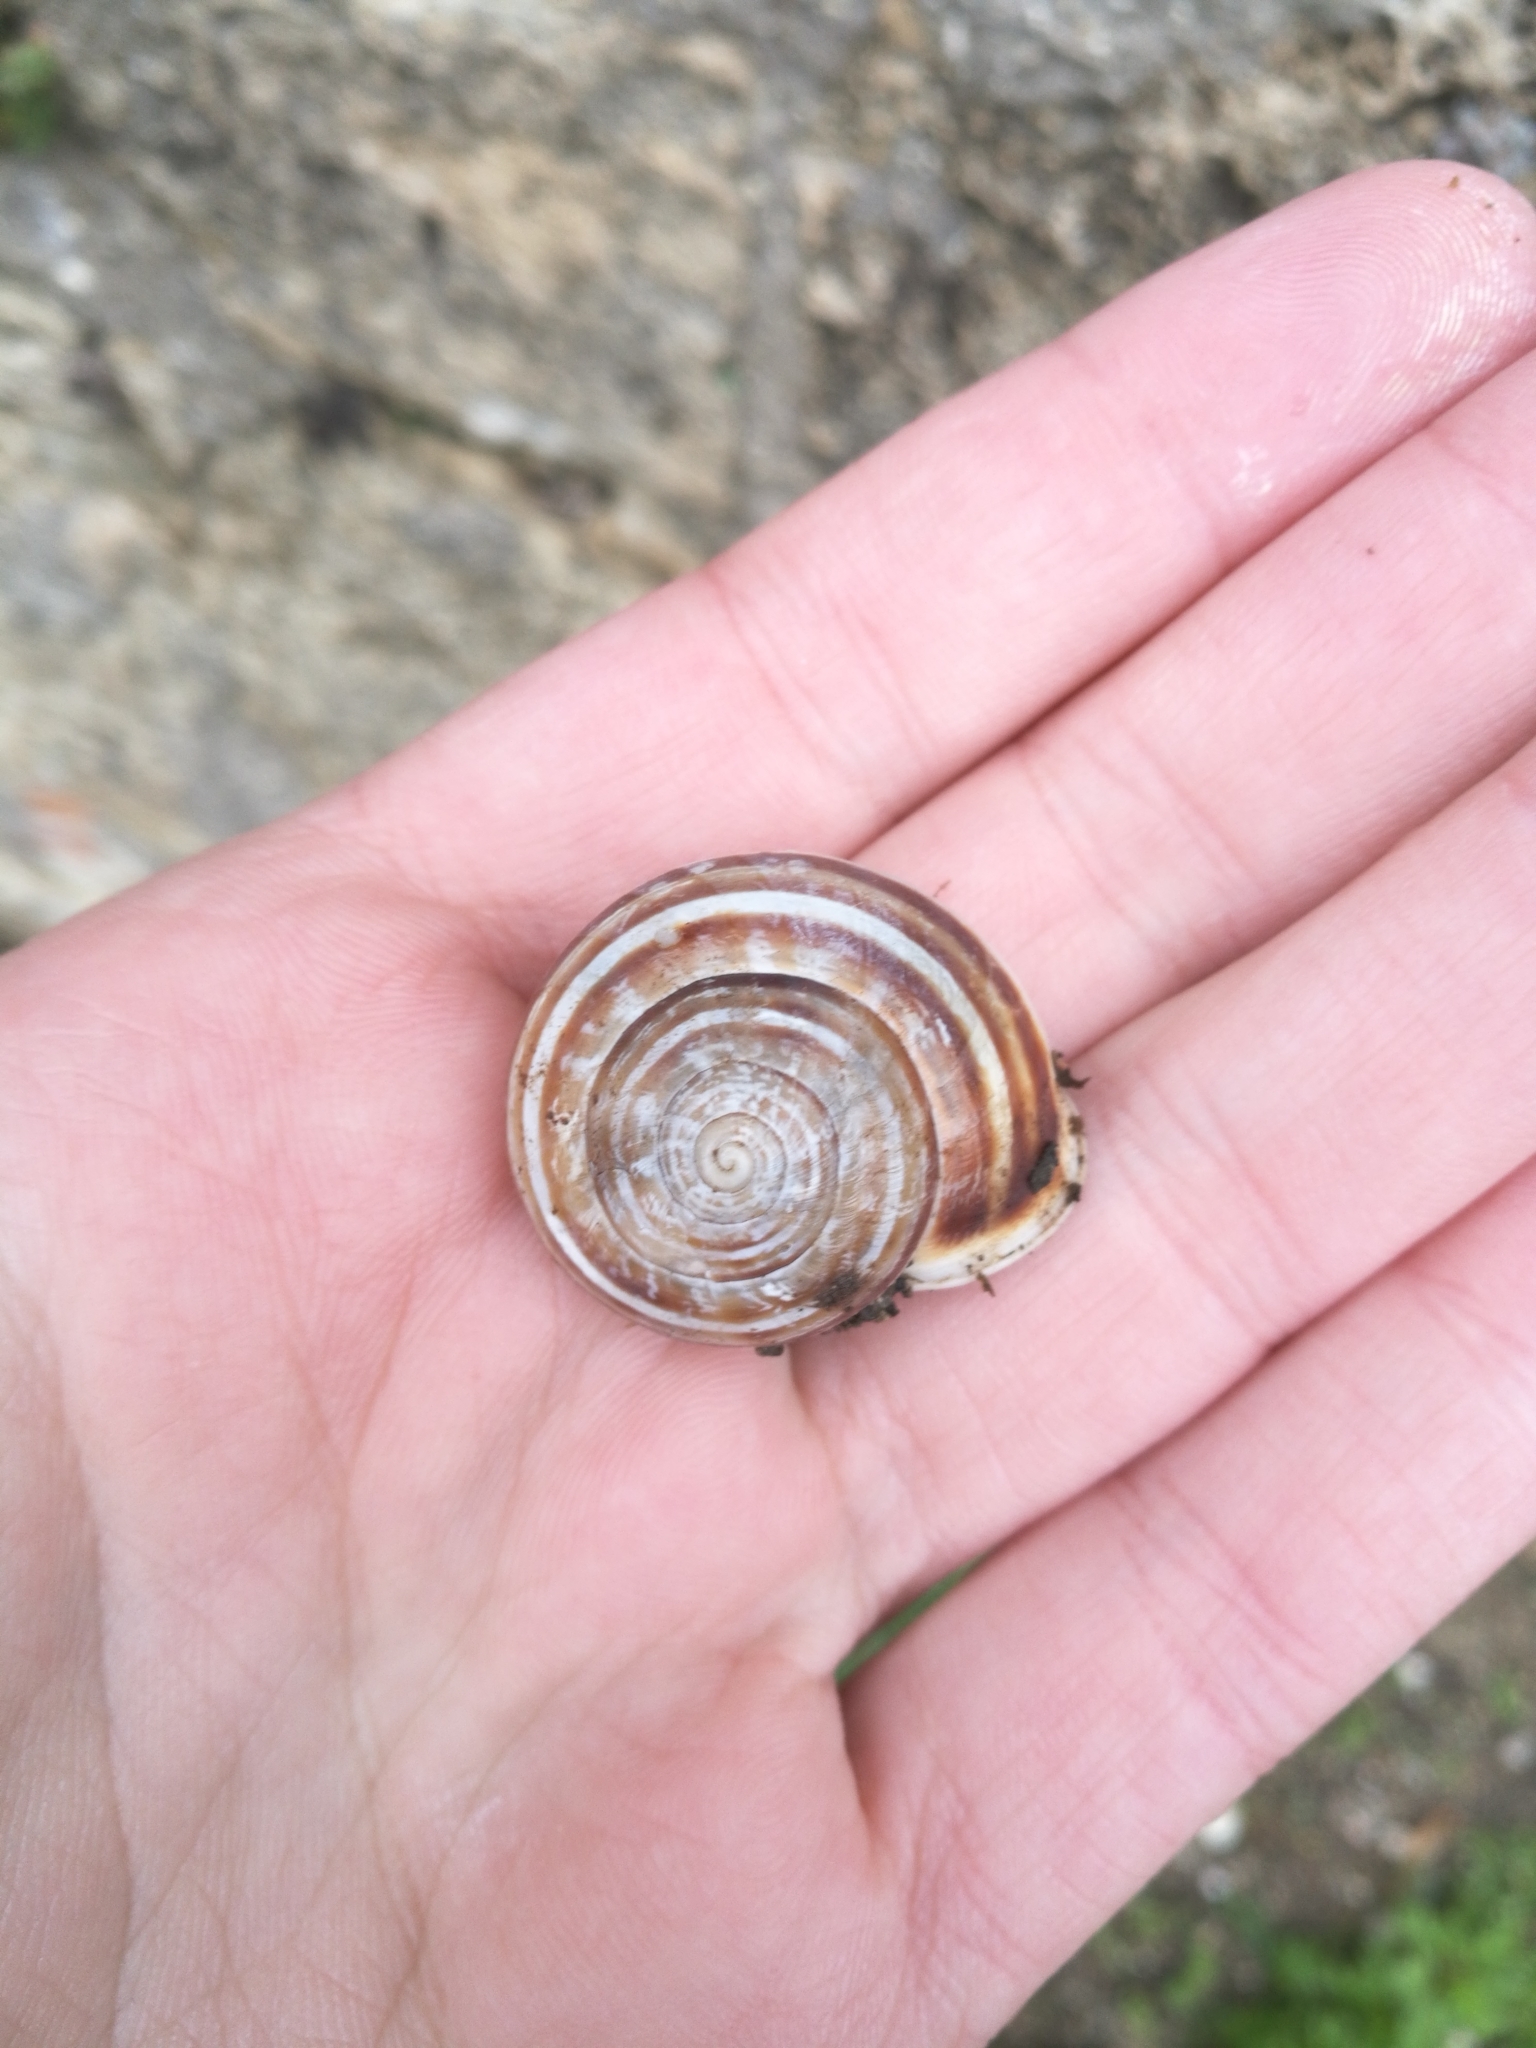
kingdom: Animalia
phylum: Mollusca
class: Gastropoda
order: Stylommatophora
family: Helicidae
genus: Eobania
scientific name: Eobania vermiculata
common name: Chocolateband snail
